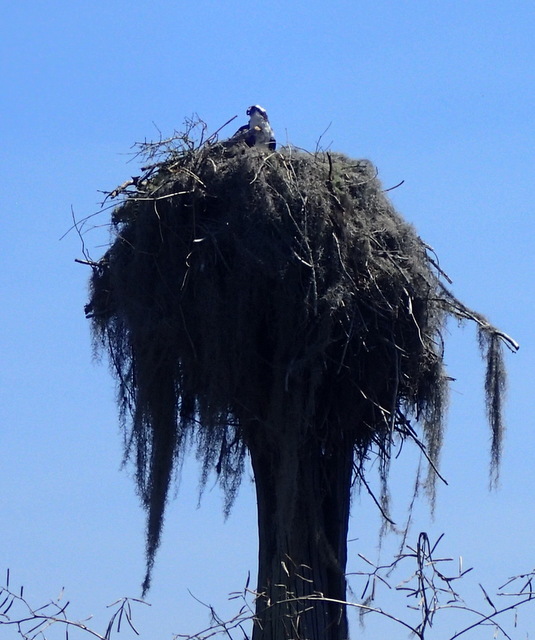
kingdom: Animalia
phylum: Chordata
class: Aves
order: Accipitriformes
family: Pandionidae
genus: Pandion
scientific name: Pandion haliaetus
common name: Osprey
